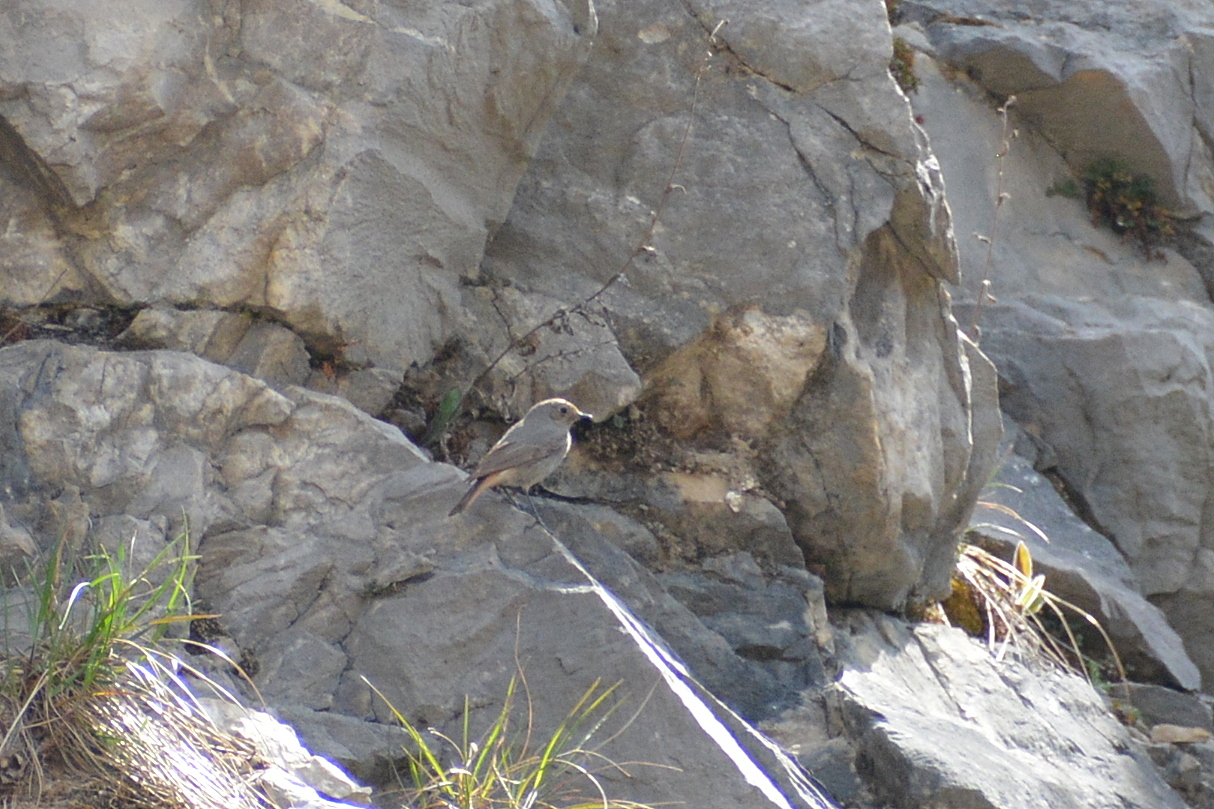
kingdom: Animalia
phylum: Chordata
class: Aves
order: Passeriformes
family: Muscicapidae
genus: Phoenicurus
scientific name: Phoenicurus ochruros
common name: Black redstart
